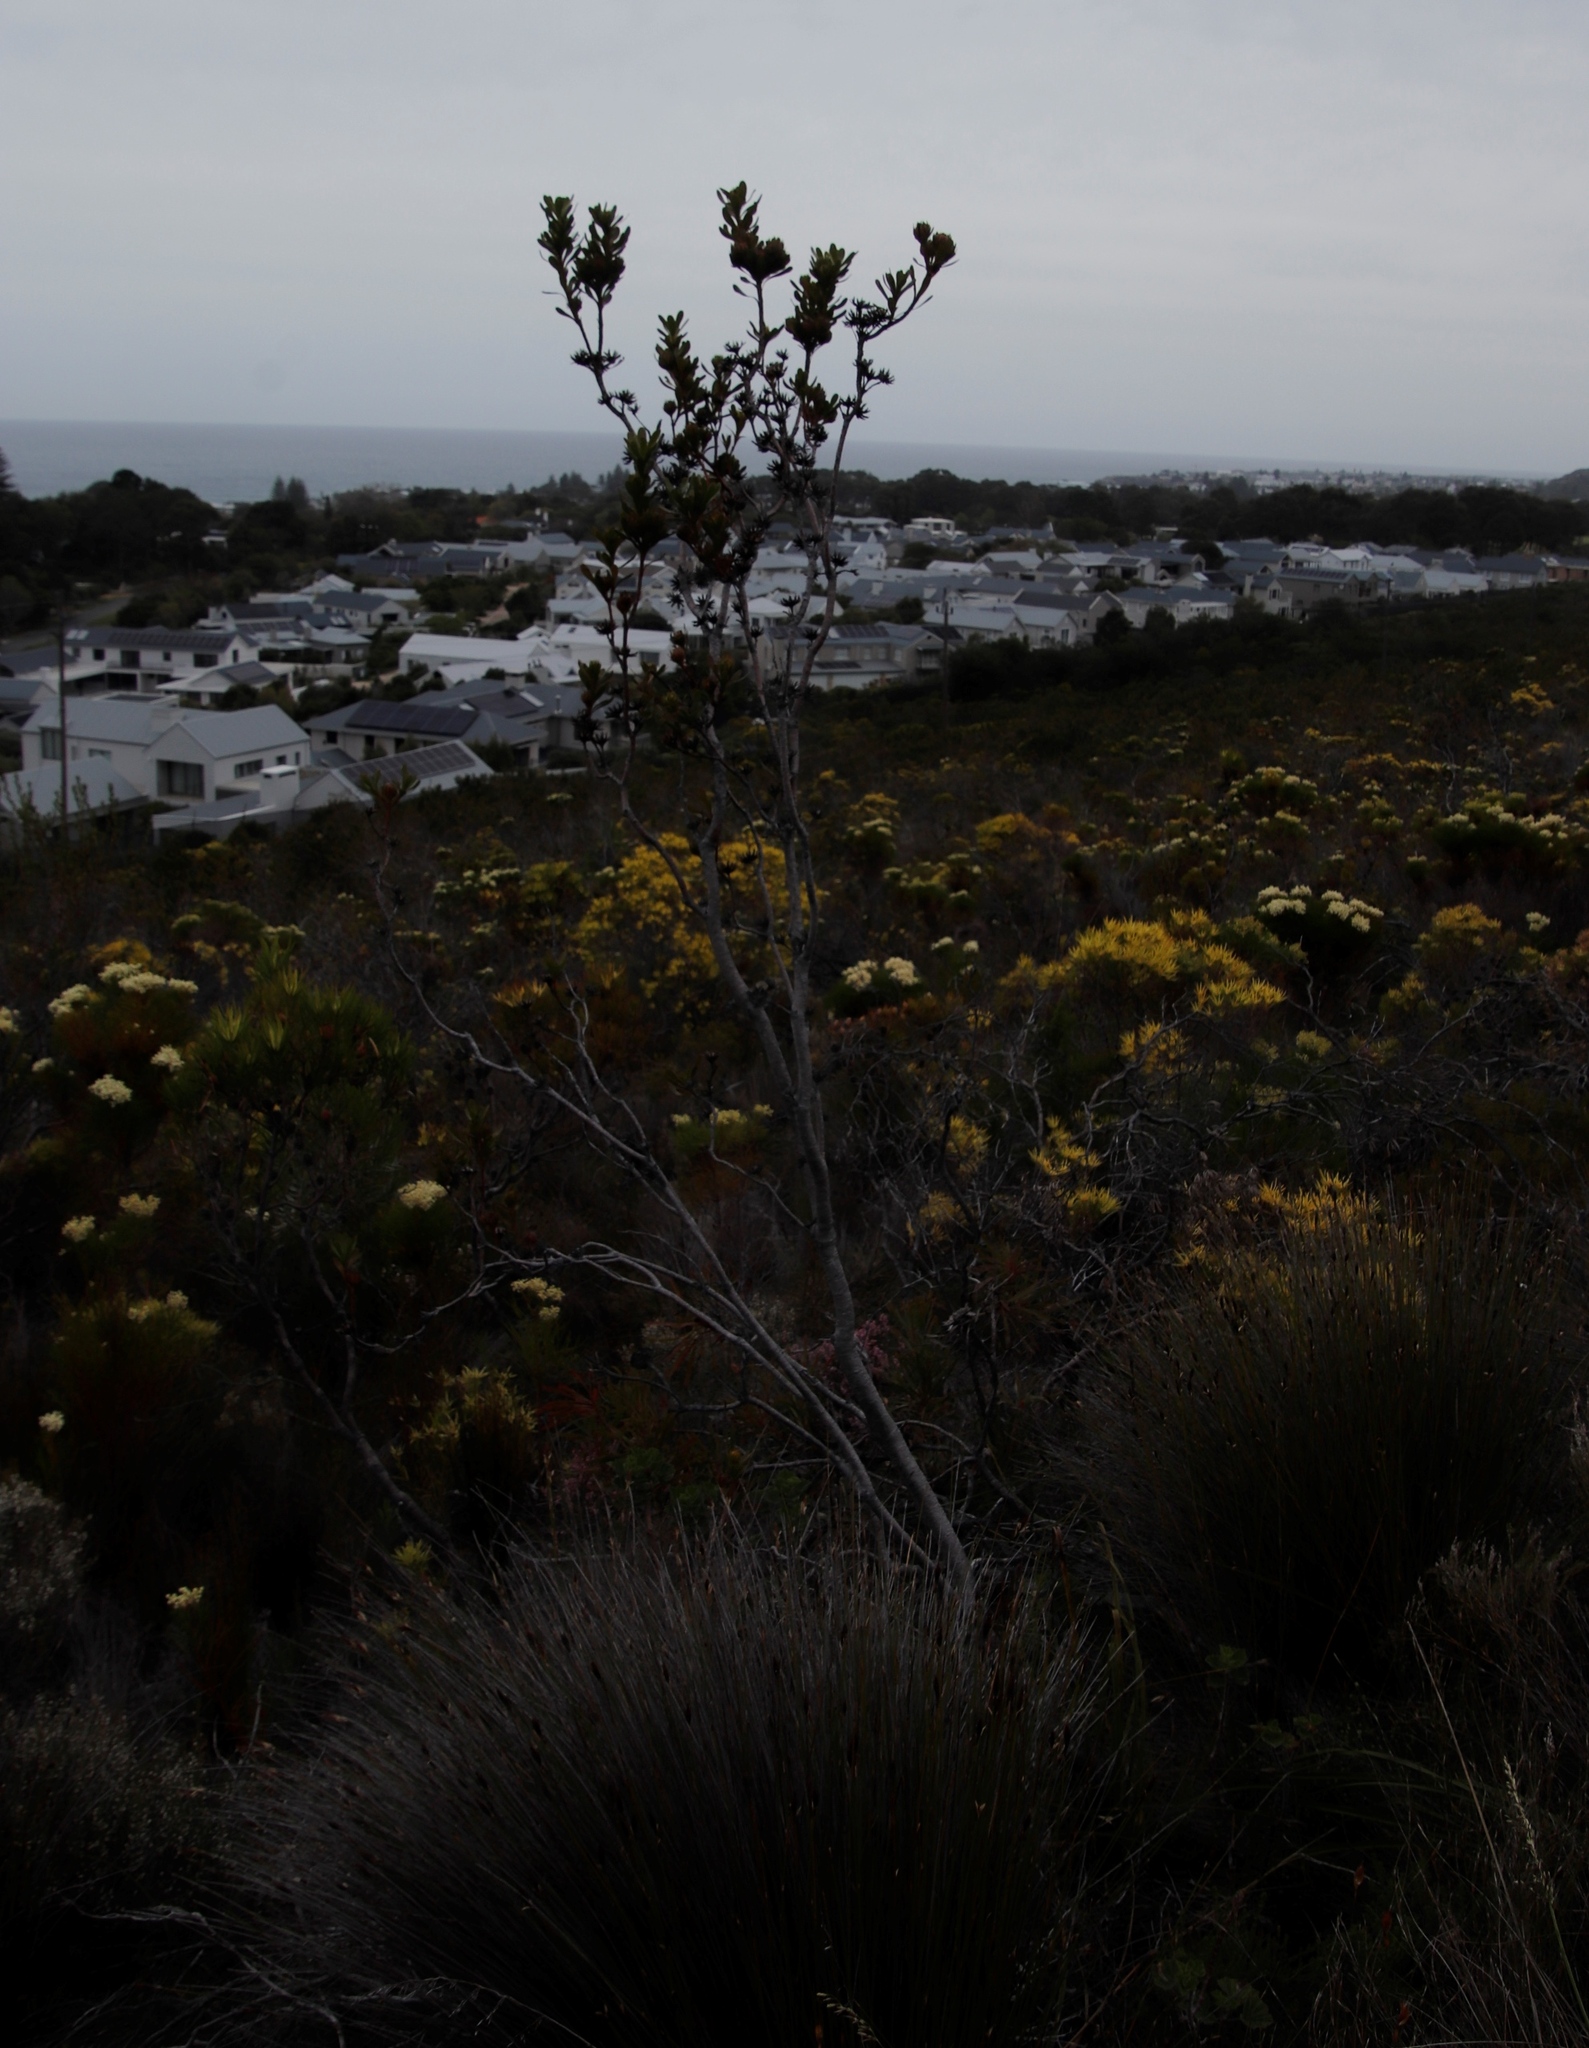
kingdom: Plantae
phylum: Tracheophyta
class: Magnoliopsida
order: Proteales
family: Proteaceae
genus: Aulax
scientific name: Aulax umbellata
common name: Broad-leaf featherbush
